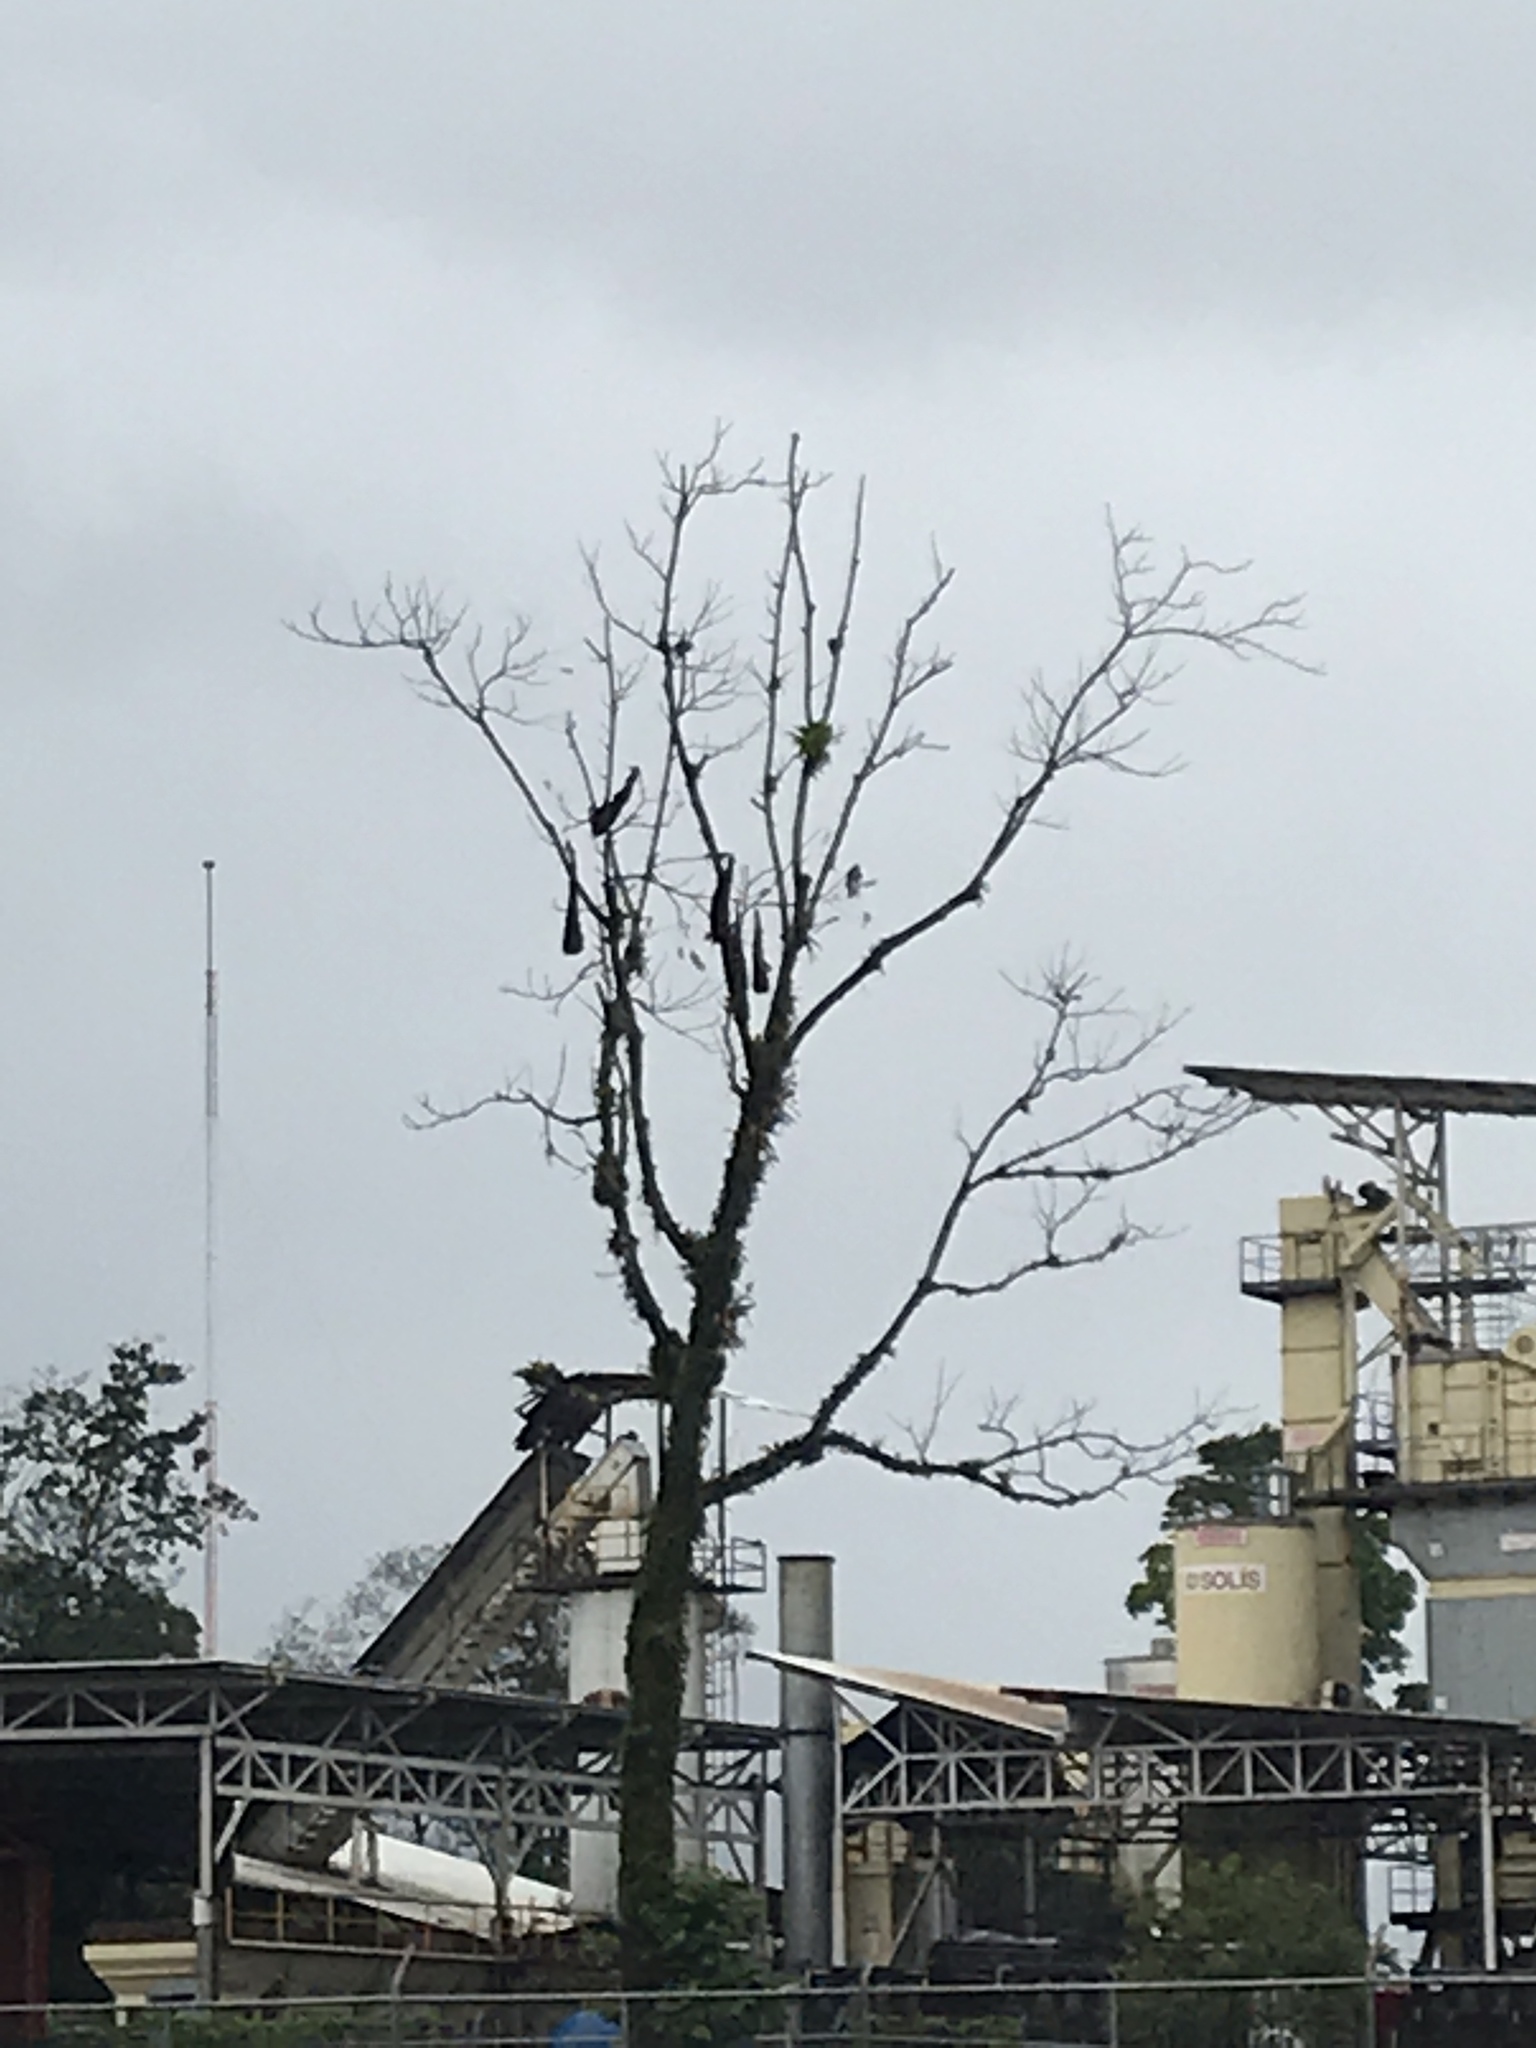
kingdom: Animalia
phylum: Chordata
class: Aves
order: Passeriformes
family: Icteridae
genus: Psarocolius
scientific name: Psarocolius montezuma
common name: Montezuma oropendola
